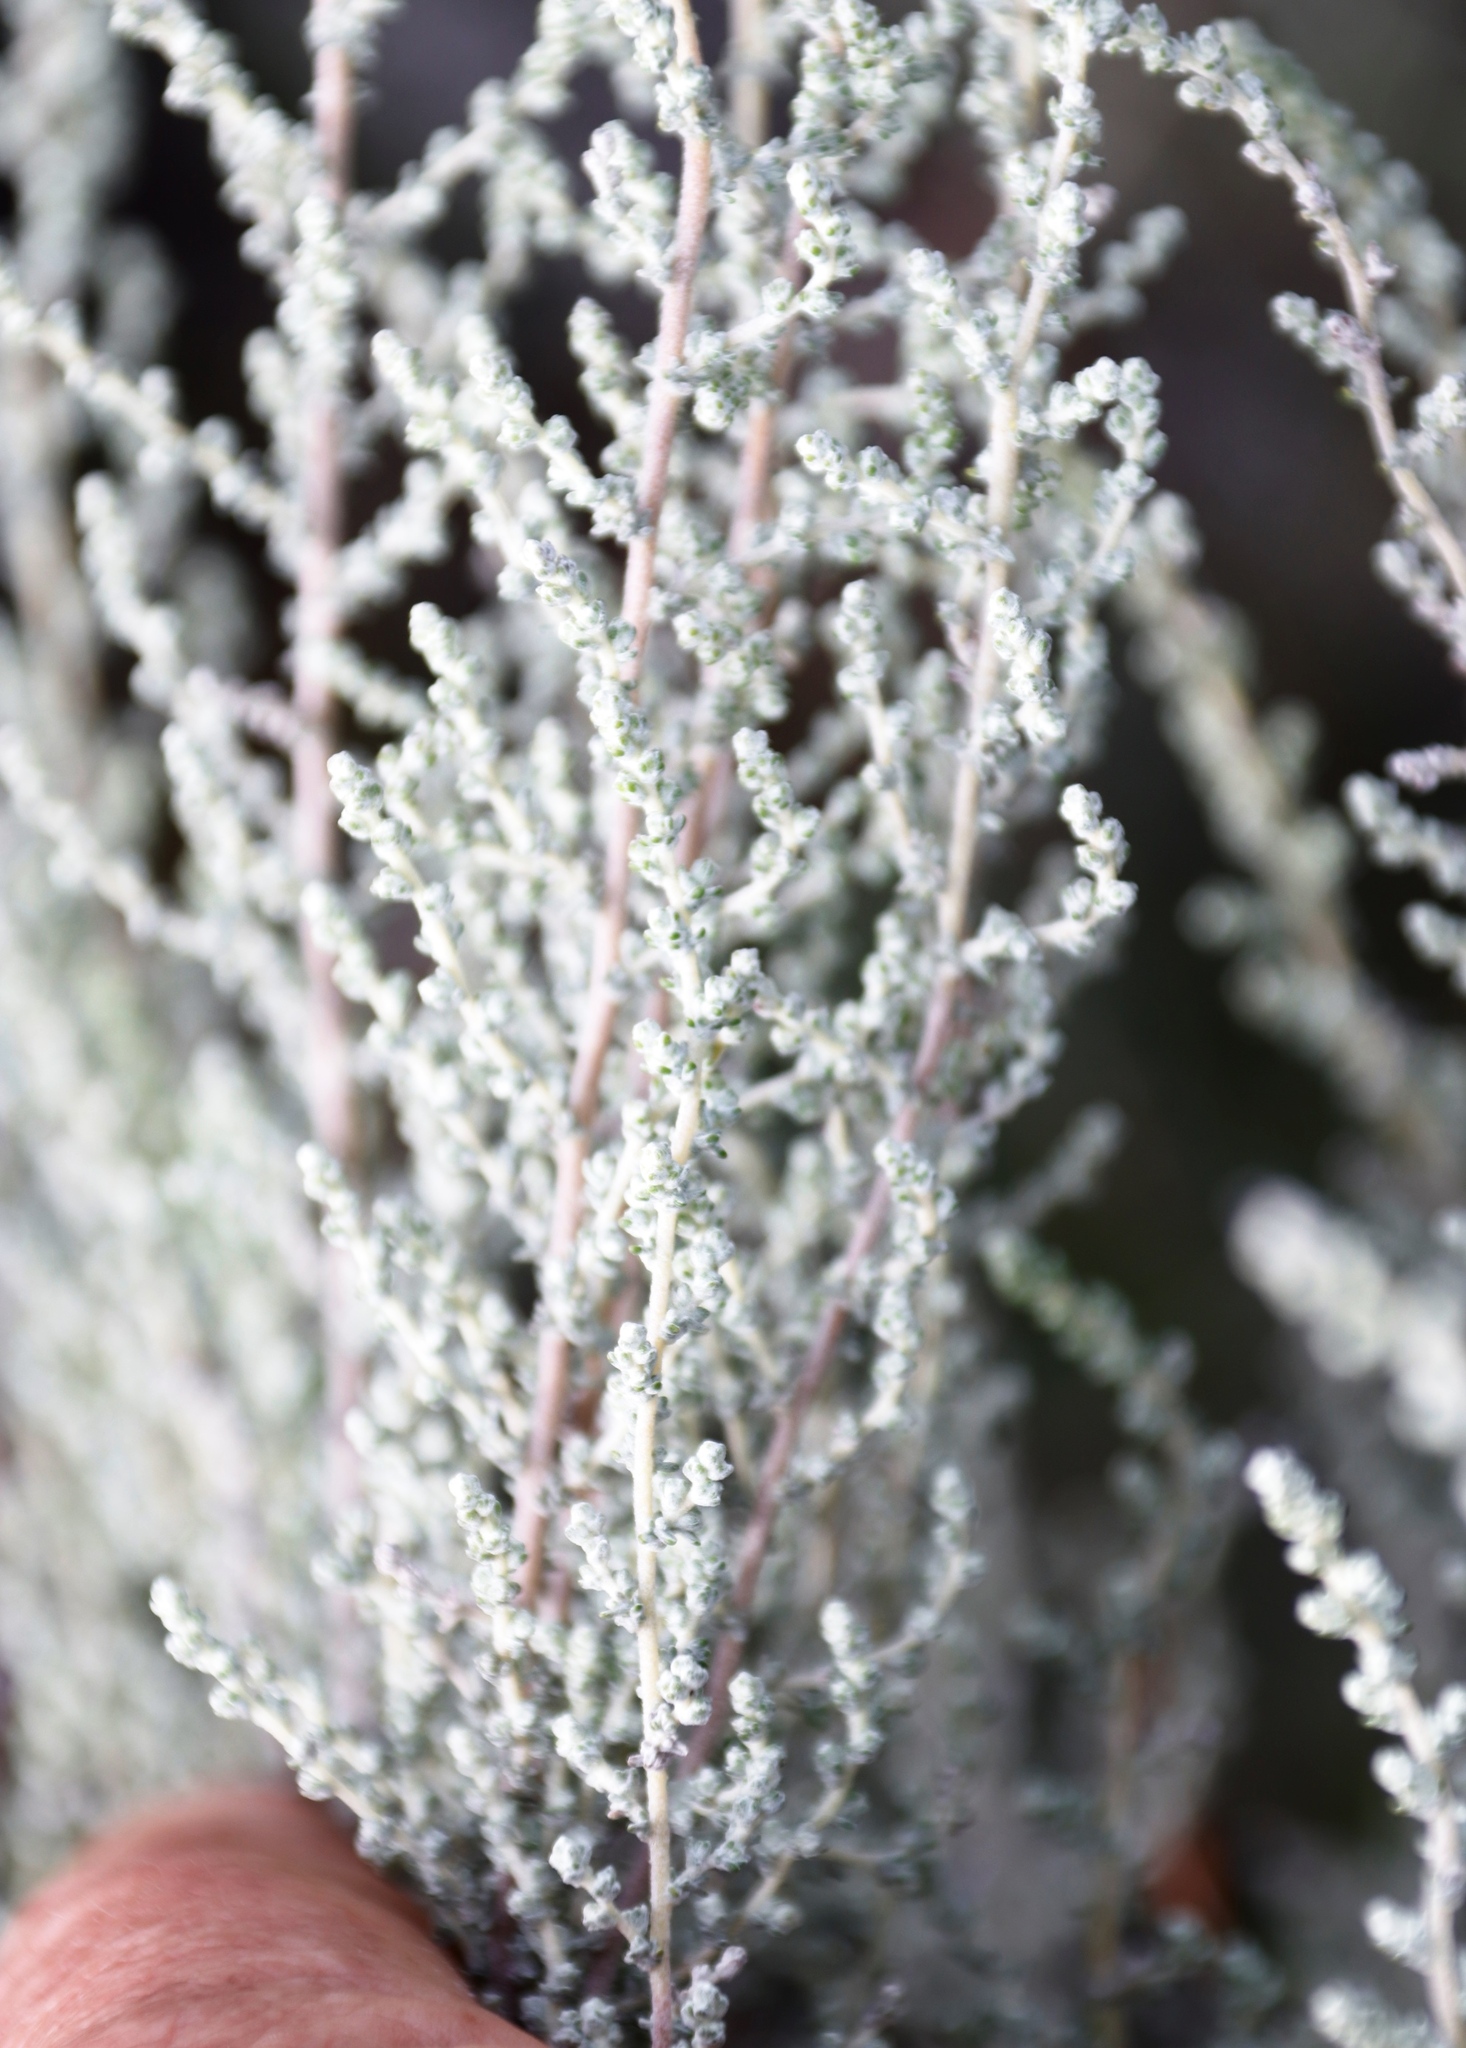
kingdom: Plantae
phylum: Tracheophyta
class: Magnoliopsida
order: Asterales
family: Asteraceae
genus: Dicerothamnus
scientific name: Dicerothamnus rhinocerotis
